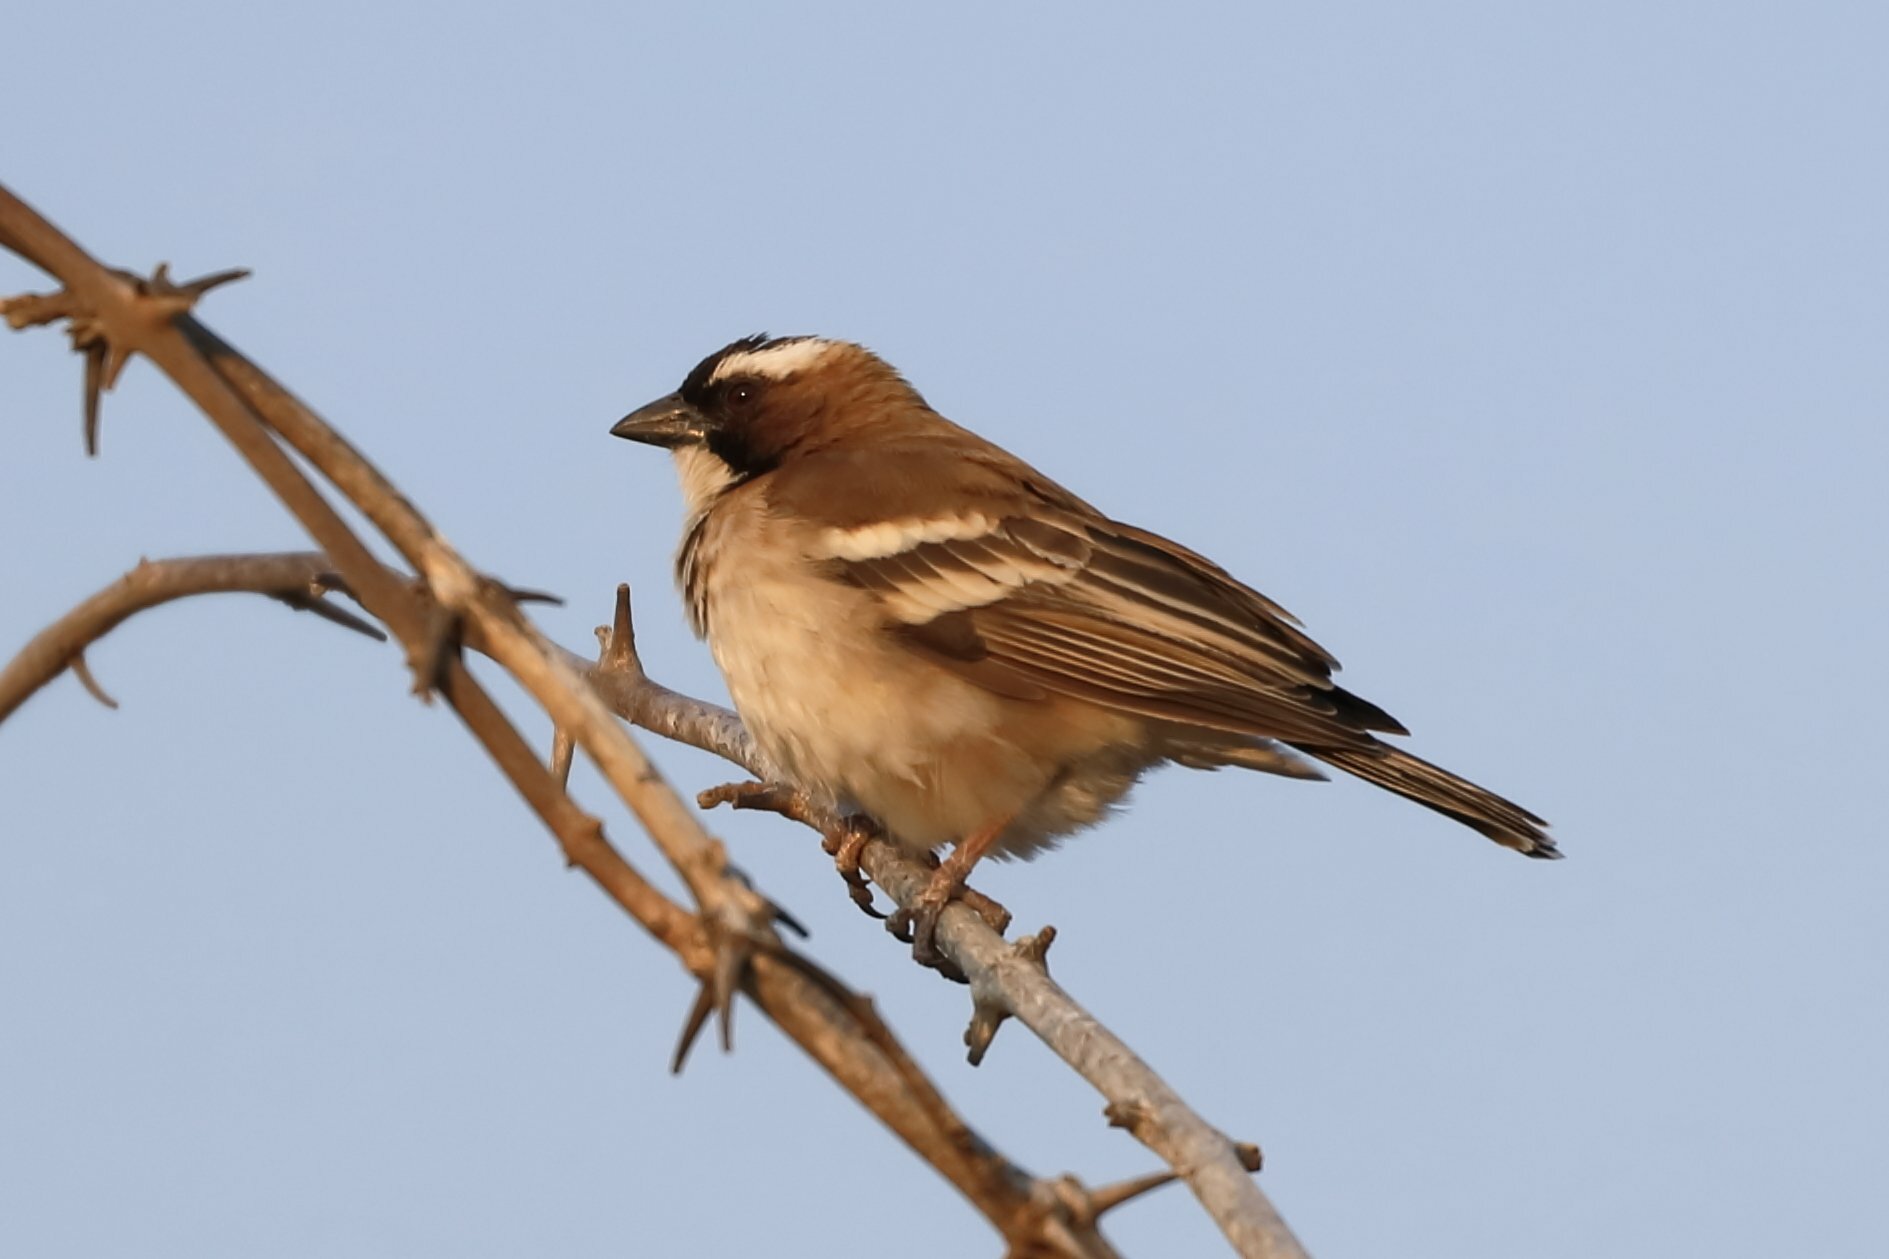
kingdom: Animalia
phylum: Chordata
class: Aves
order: Passeriformes
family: Passeridae
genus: Plocepasser
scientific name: Plocepasser mahali
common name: White-browed sparrow-weaver
